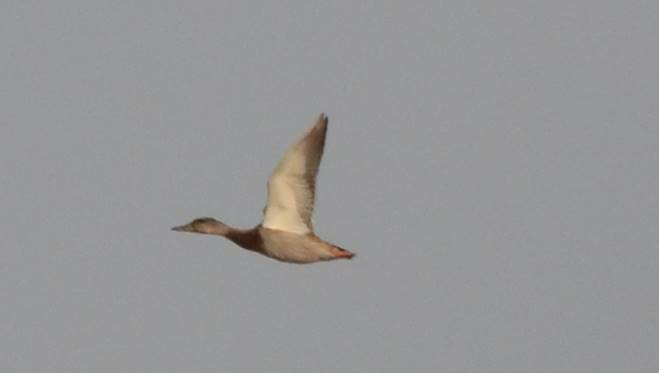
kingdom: Animalia
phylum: Chordata
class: Aves
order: Anseriformes
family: Anatidae
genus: Anas
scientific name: Anas platyrhynchos
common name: Mallard
